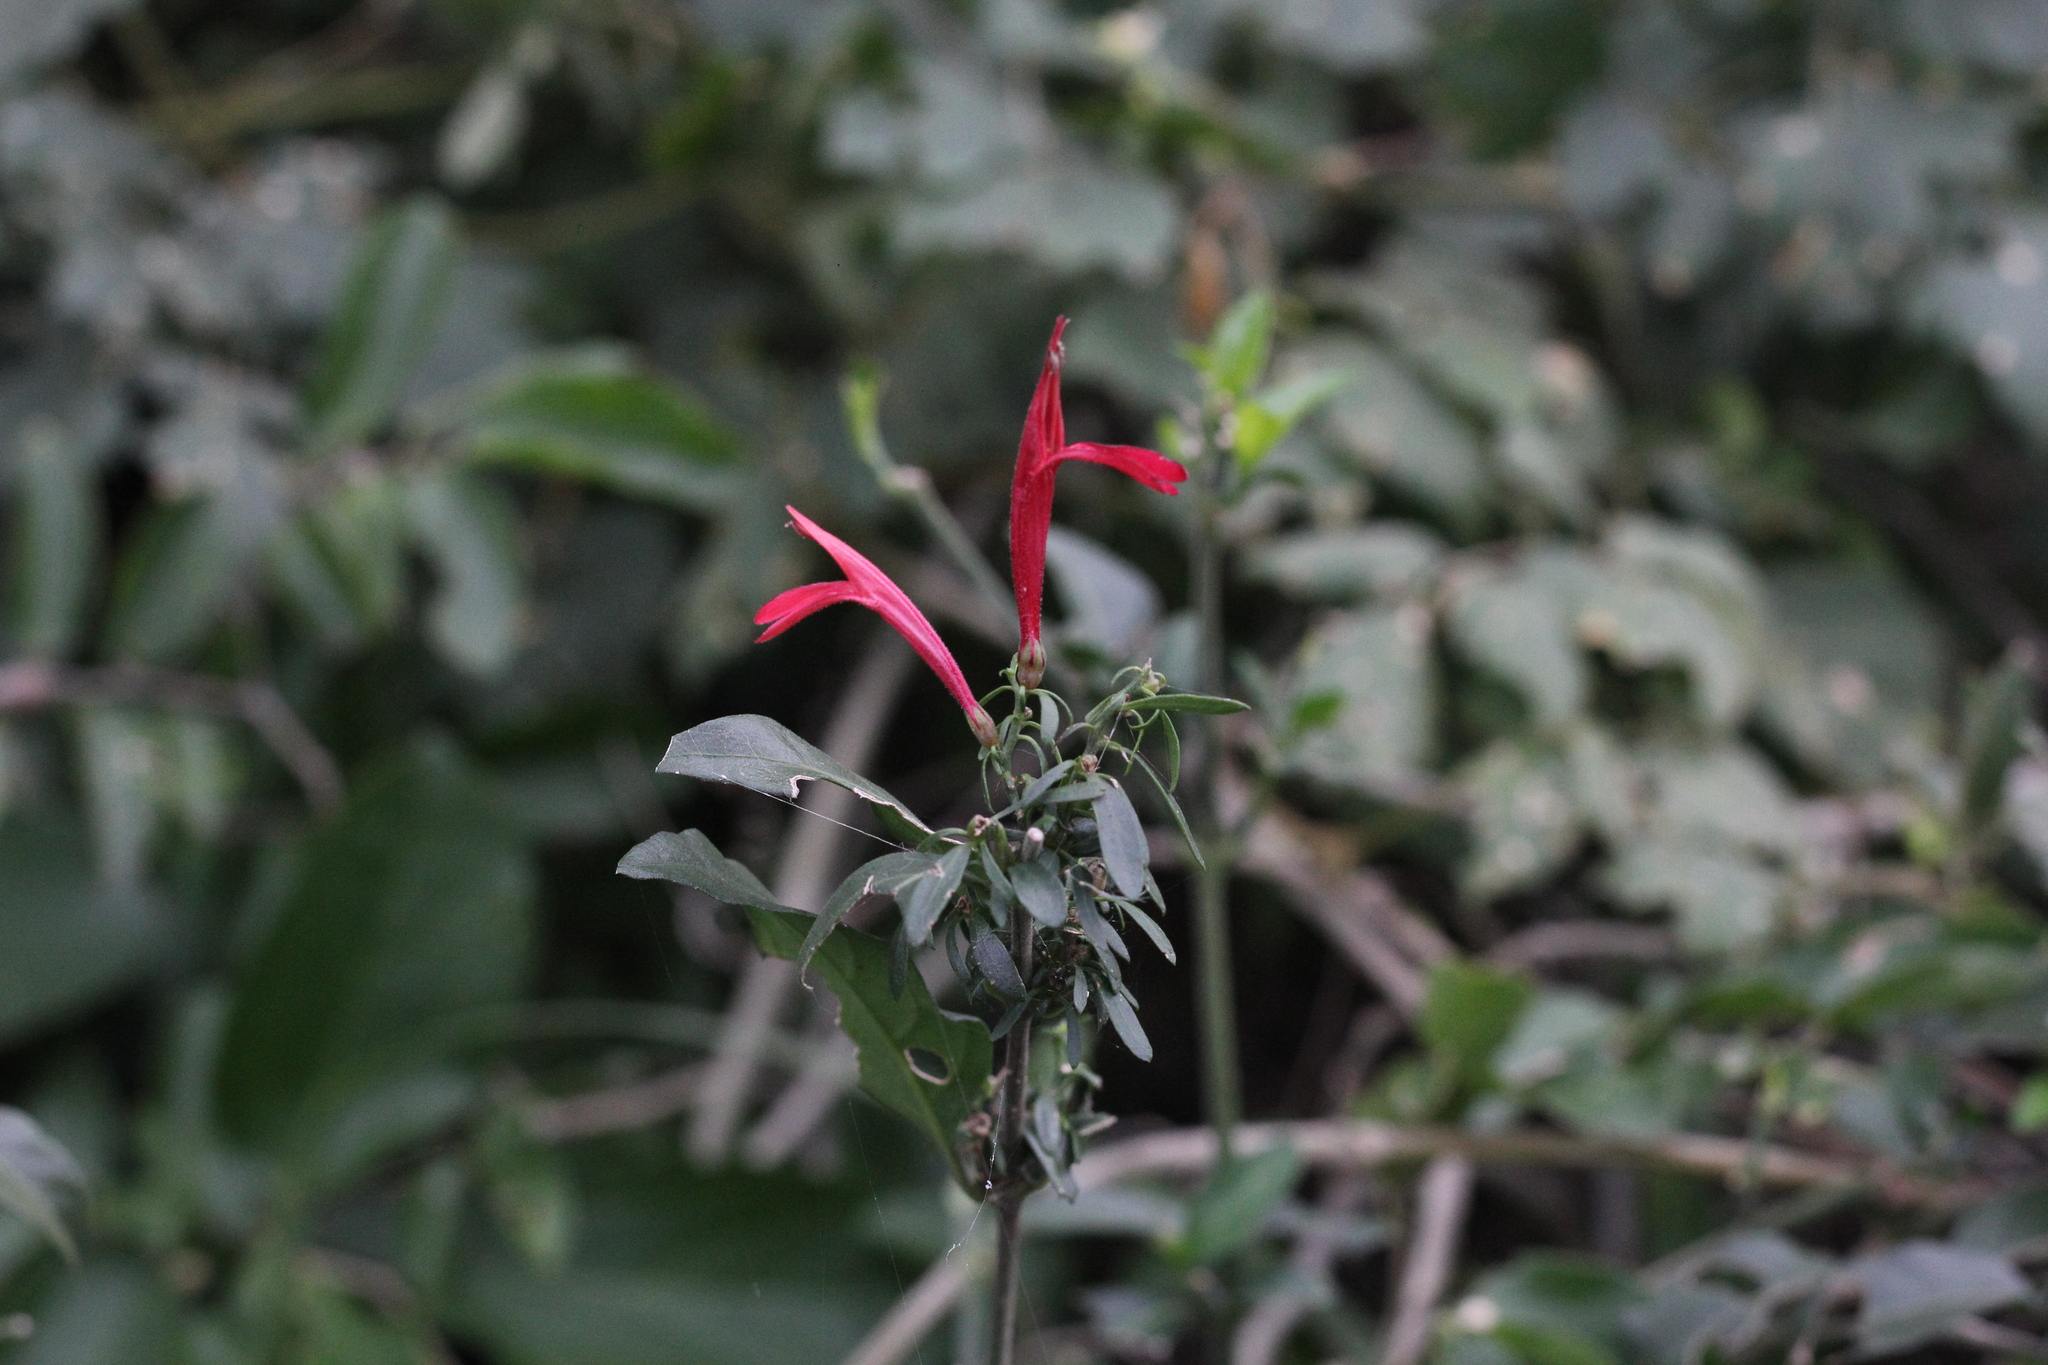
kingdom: Plantae
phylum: Tracheophyta
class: Magnoliopsida
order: Lamiales
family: Acanthaceae
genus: Justicia
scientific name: Justicia brasiliana
